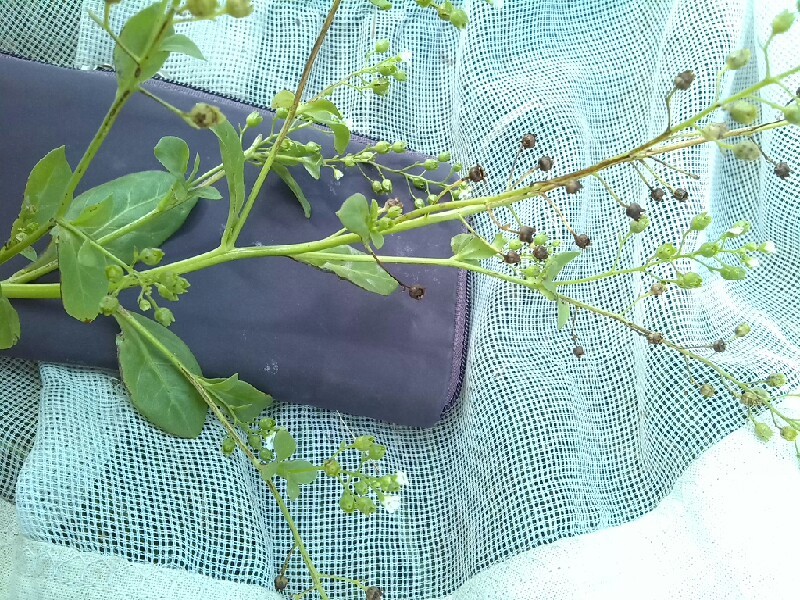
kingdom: Plantae
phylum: Tracheophyta
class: Magnoliopsida
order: Ericales
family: Primulaceae
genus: Samolus
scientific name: Samolus valerandi
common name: Brookweed
